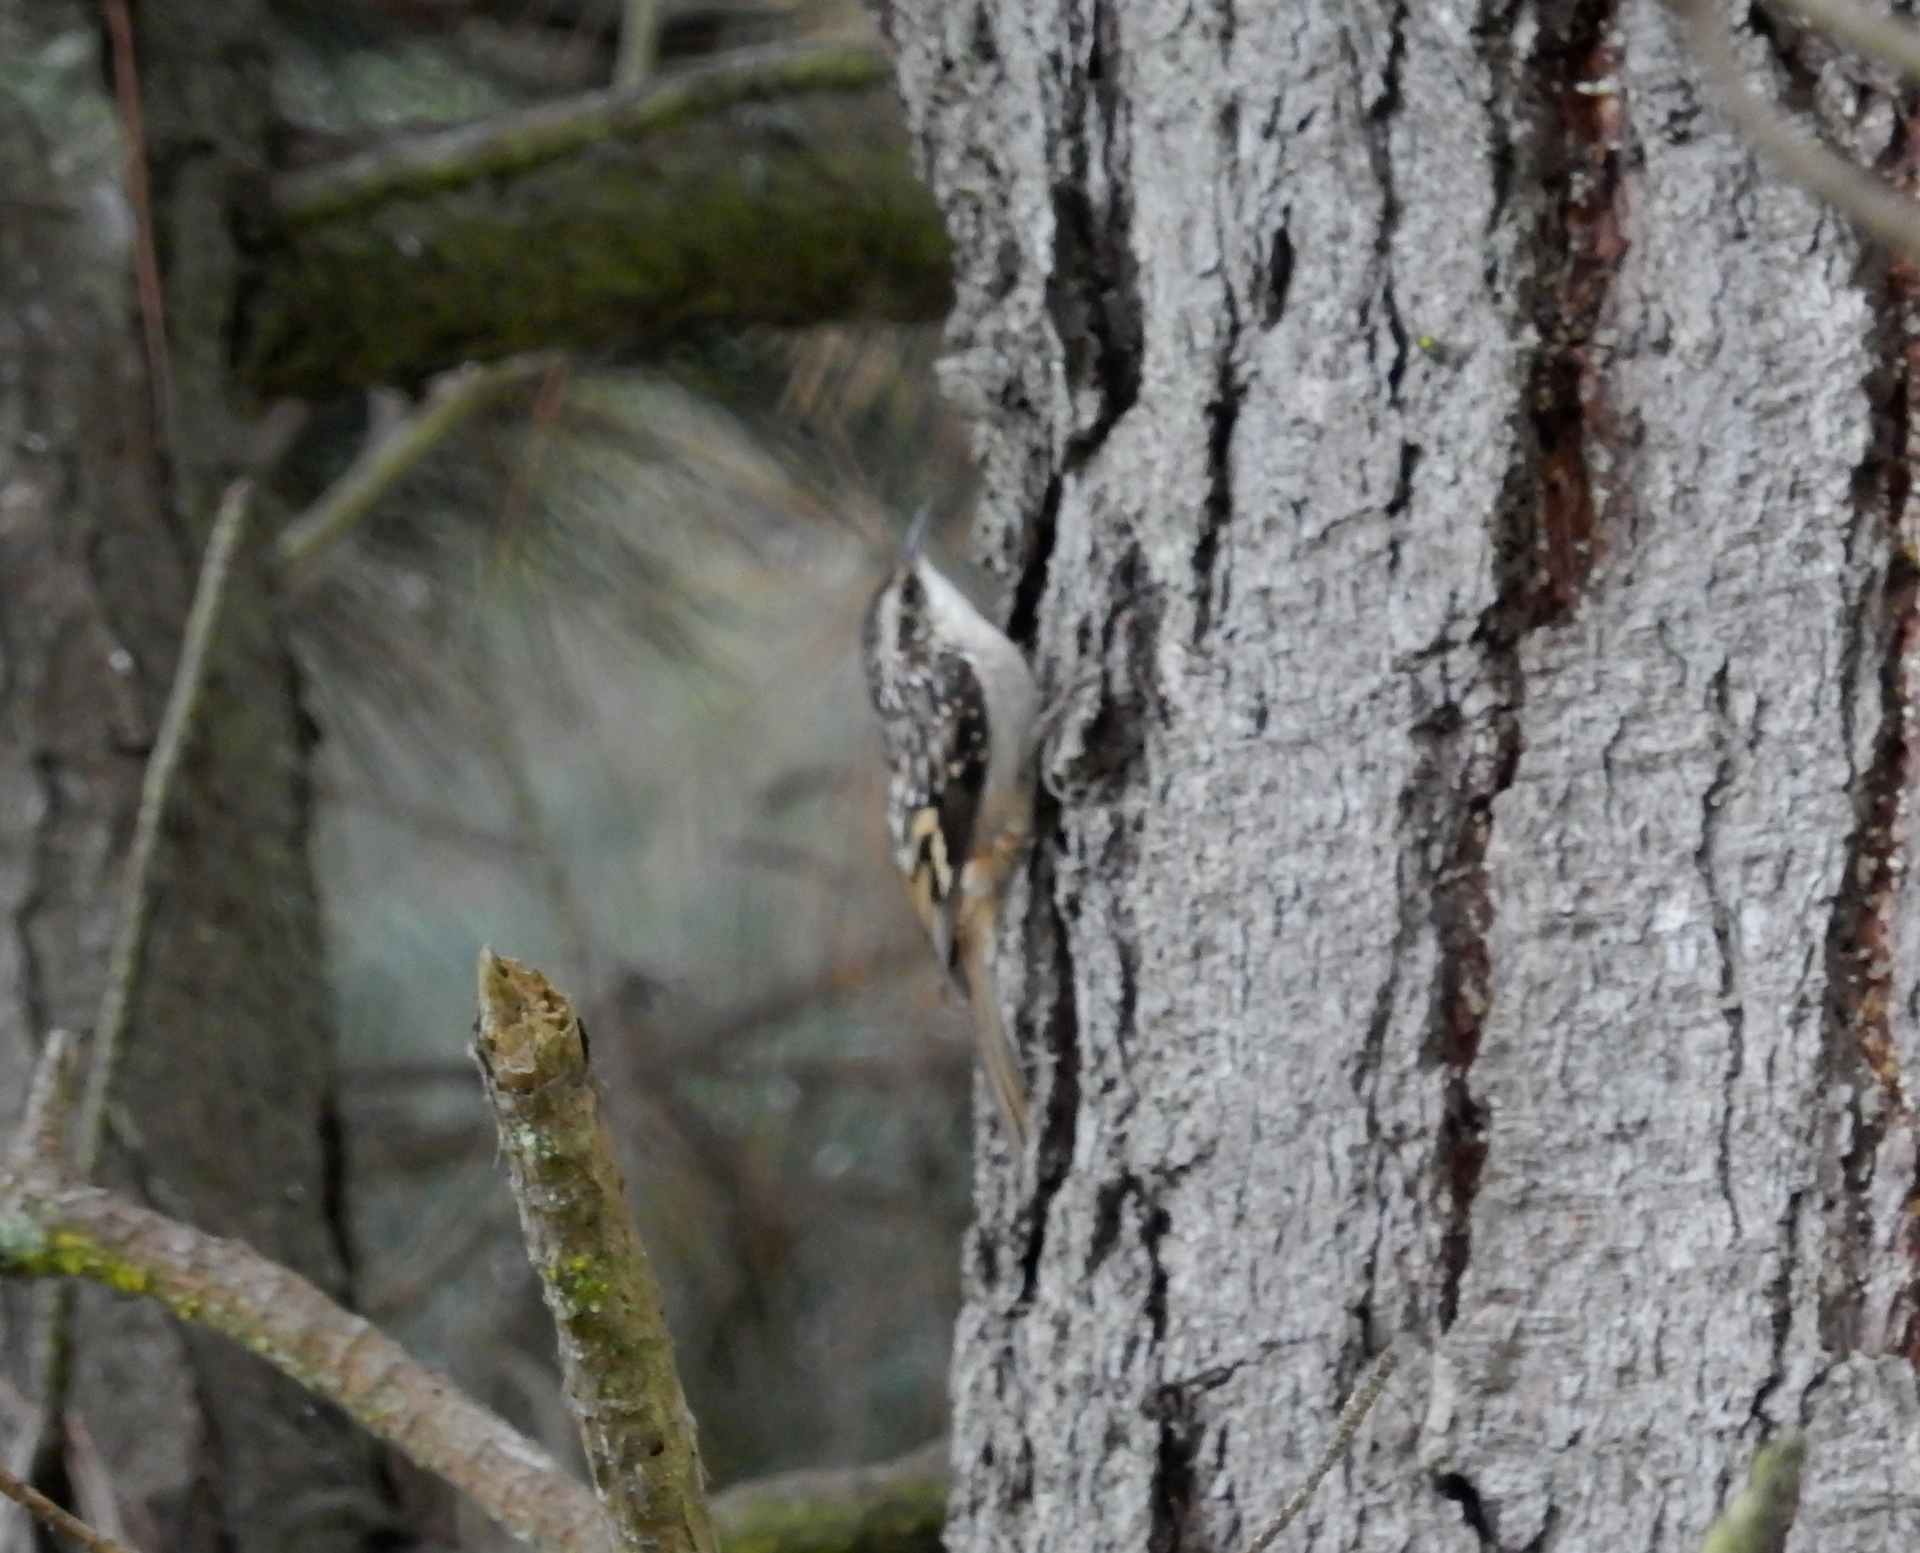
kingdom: Animalia
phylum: Chordata
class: Aves
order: Passeriformes
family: Certhiidae
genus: Certhia
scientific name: Certhia americana
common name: Brown creeper
